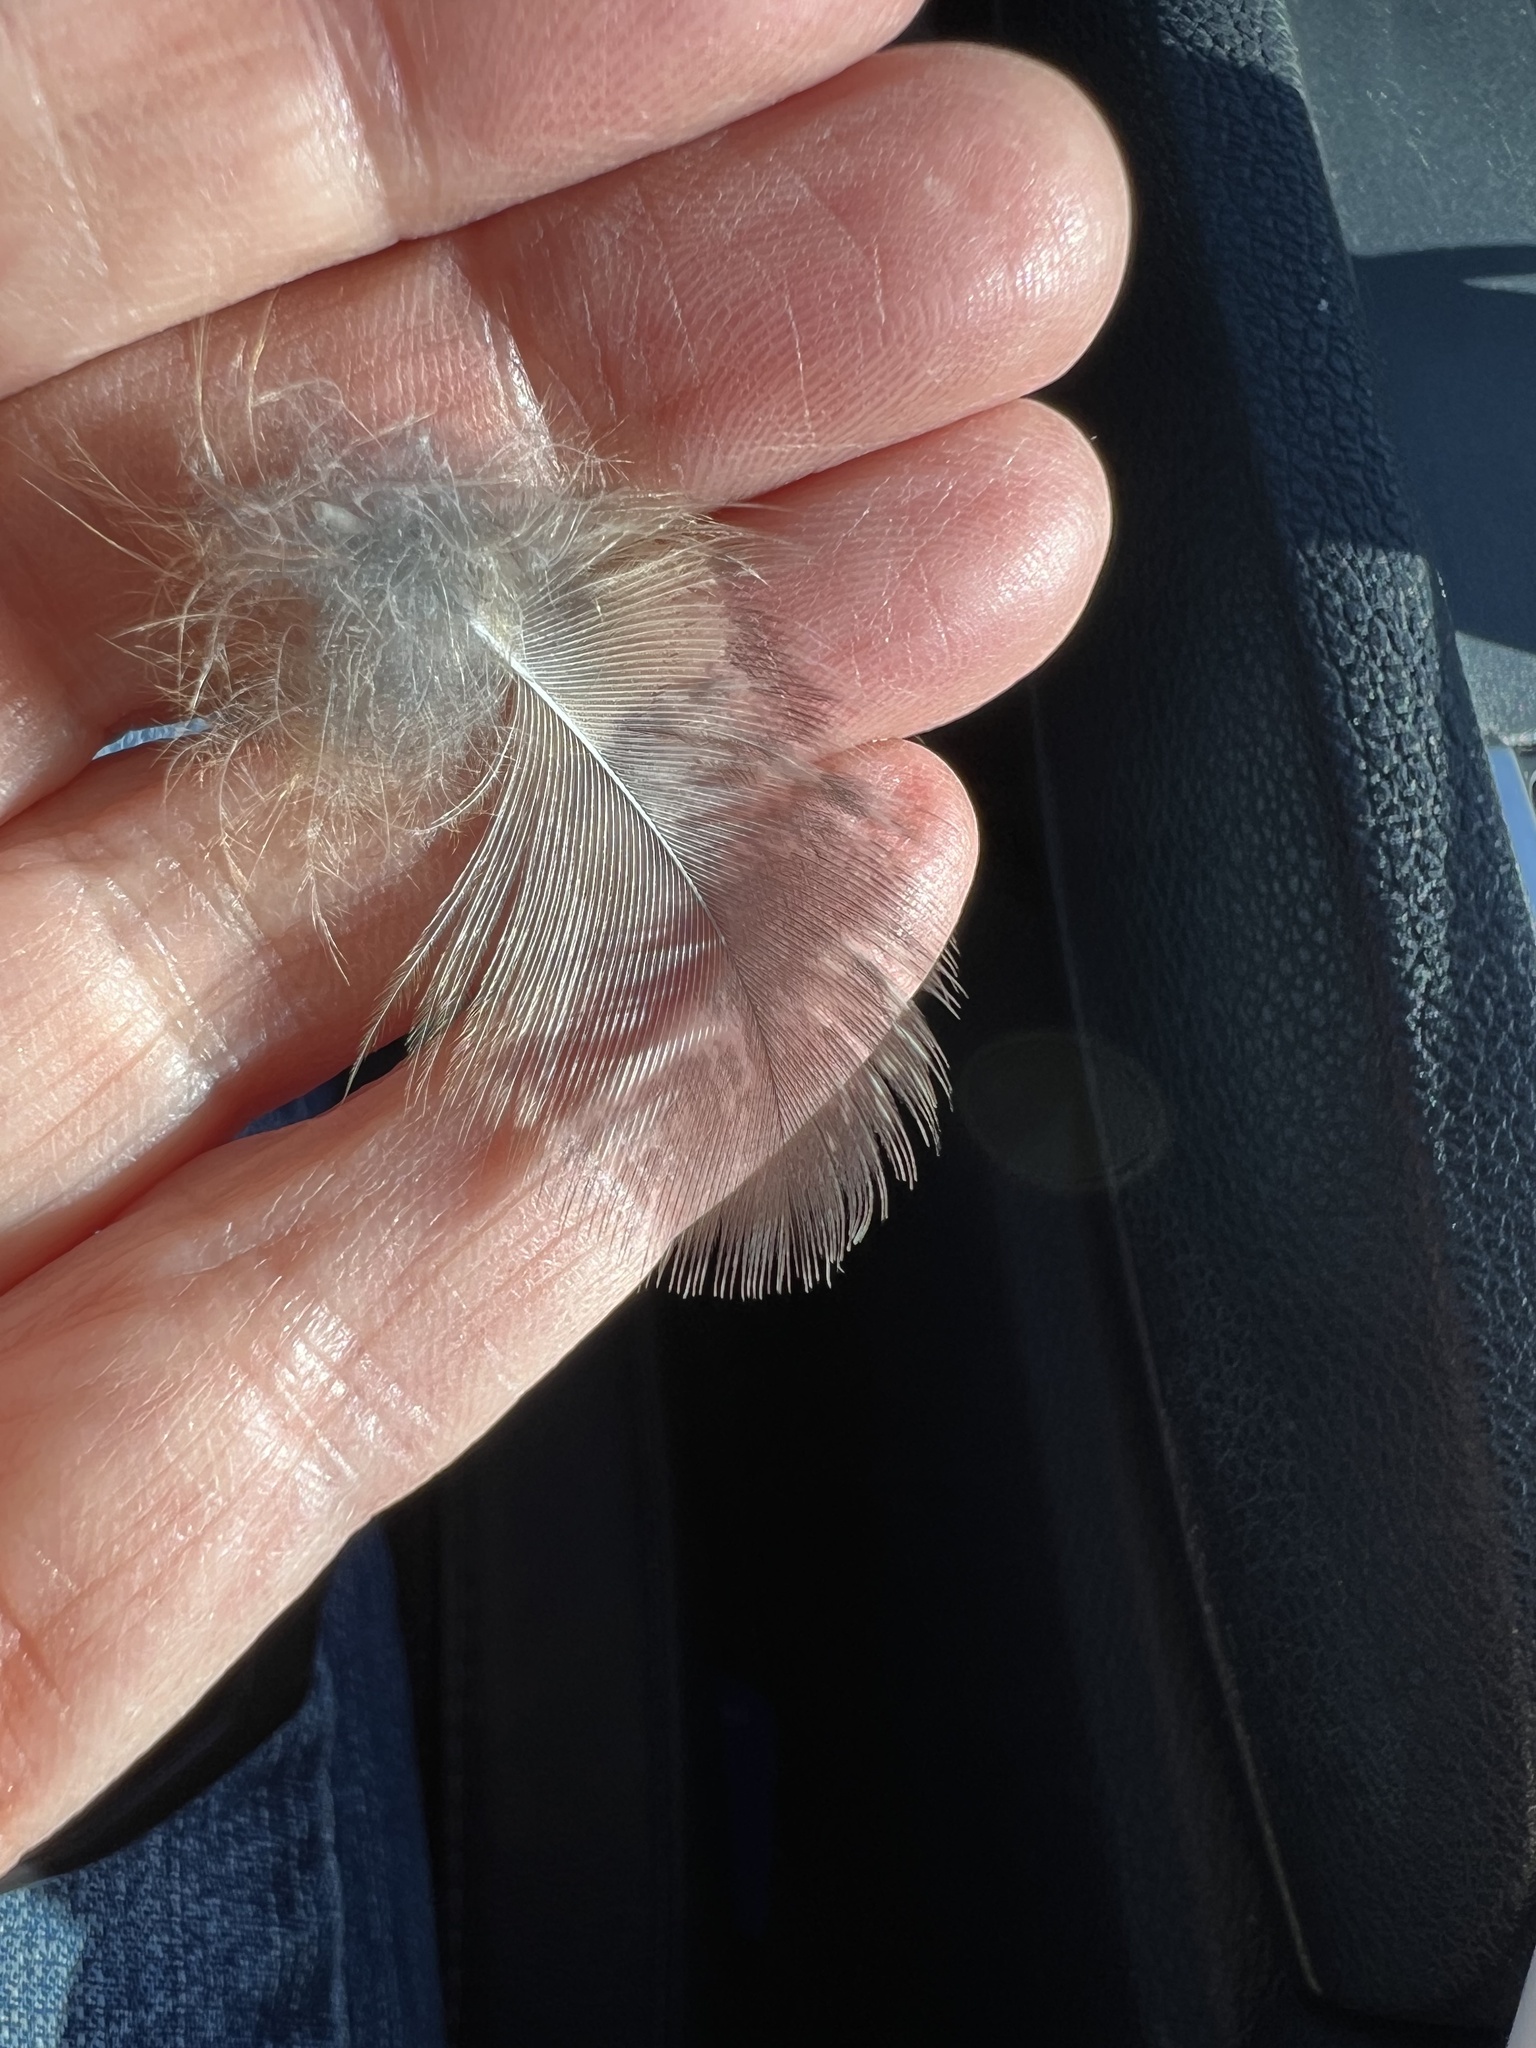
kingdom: Animalia
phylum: Chordata
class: Aves
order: Strigiformes
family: Strigidae
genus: Bubo
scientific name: Bubo virginianus
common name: Great horned owl
